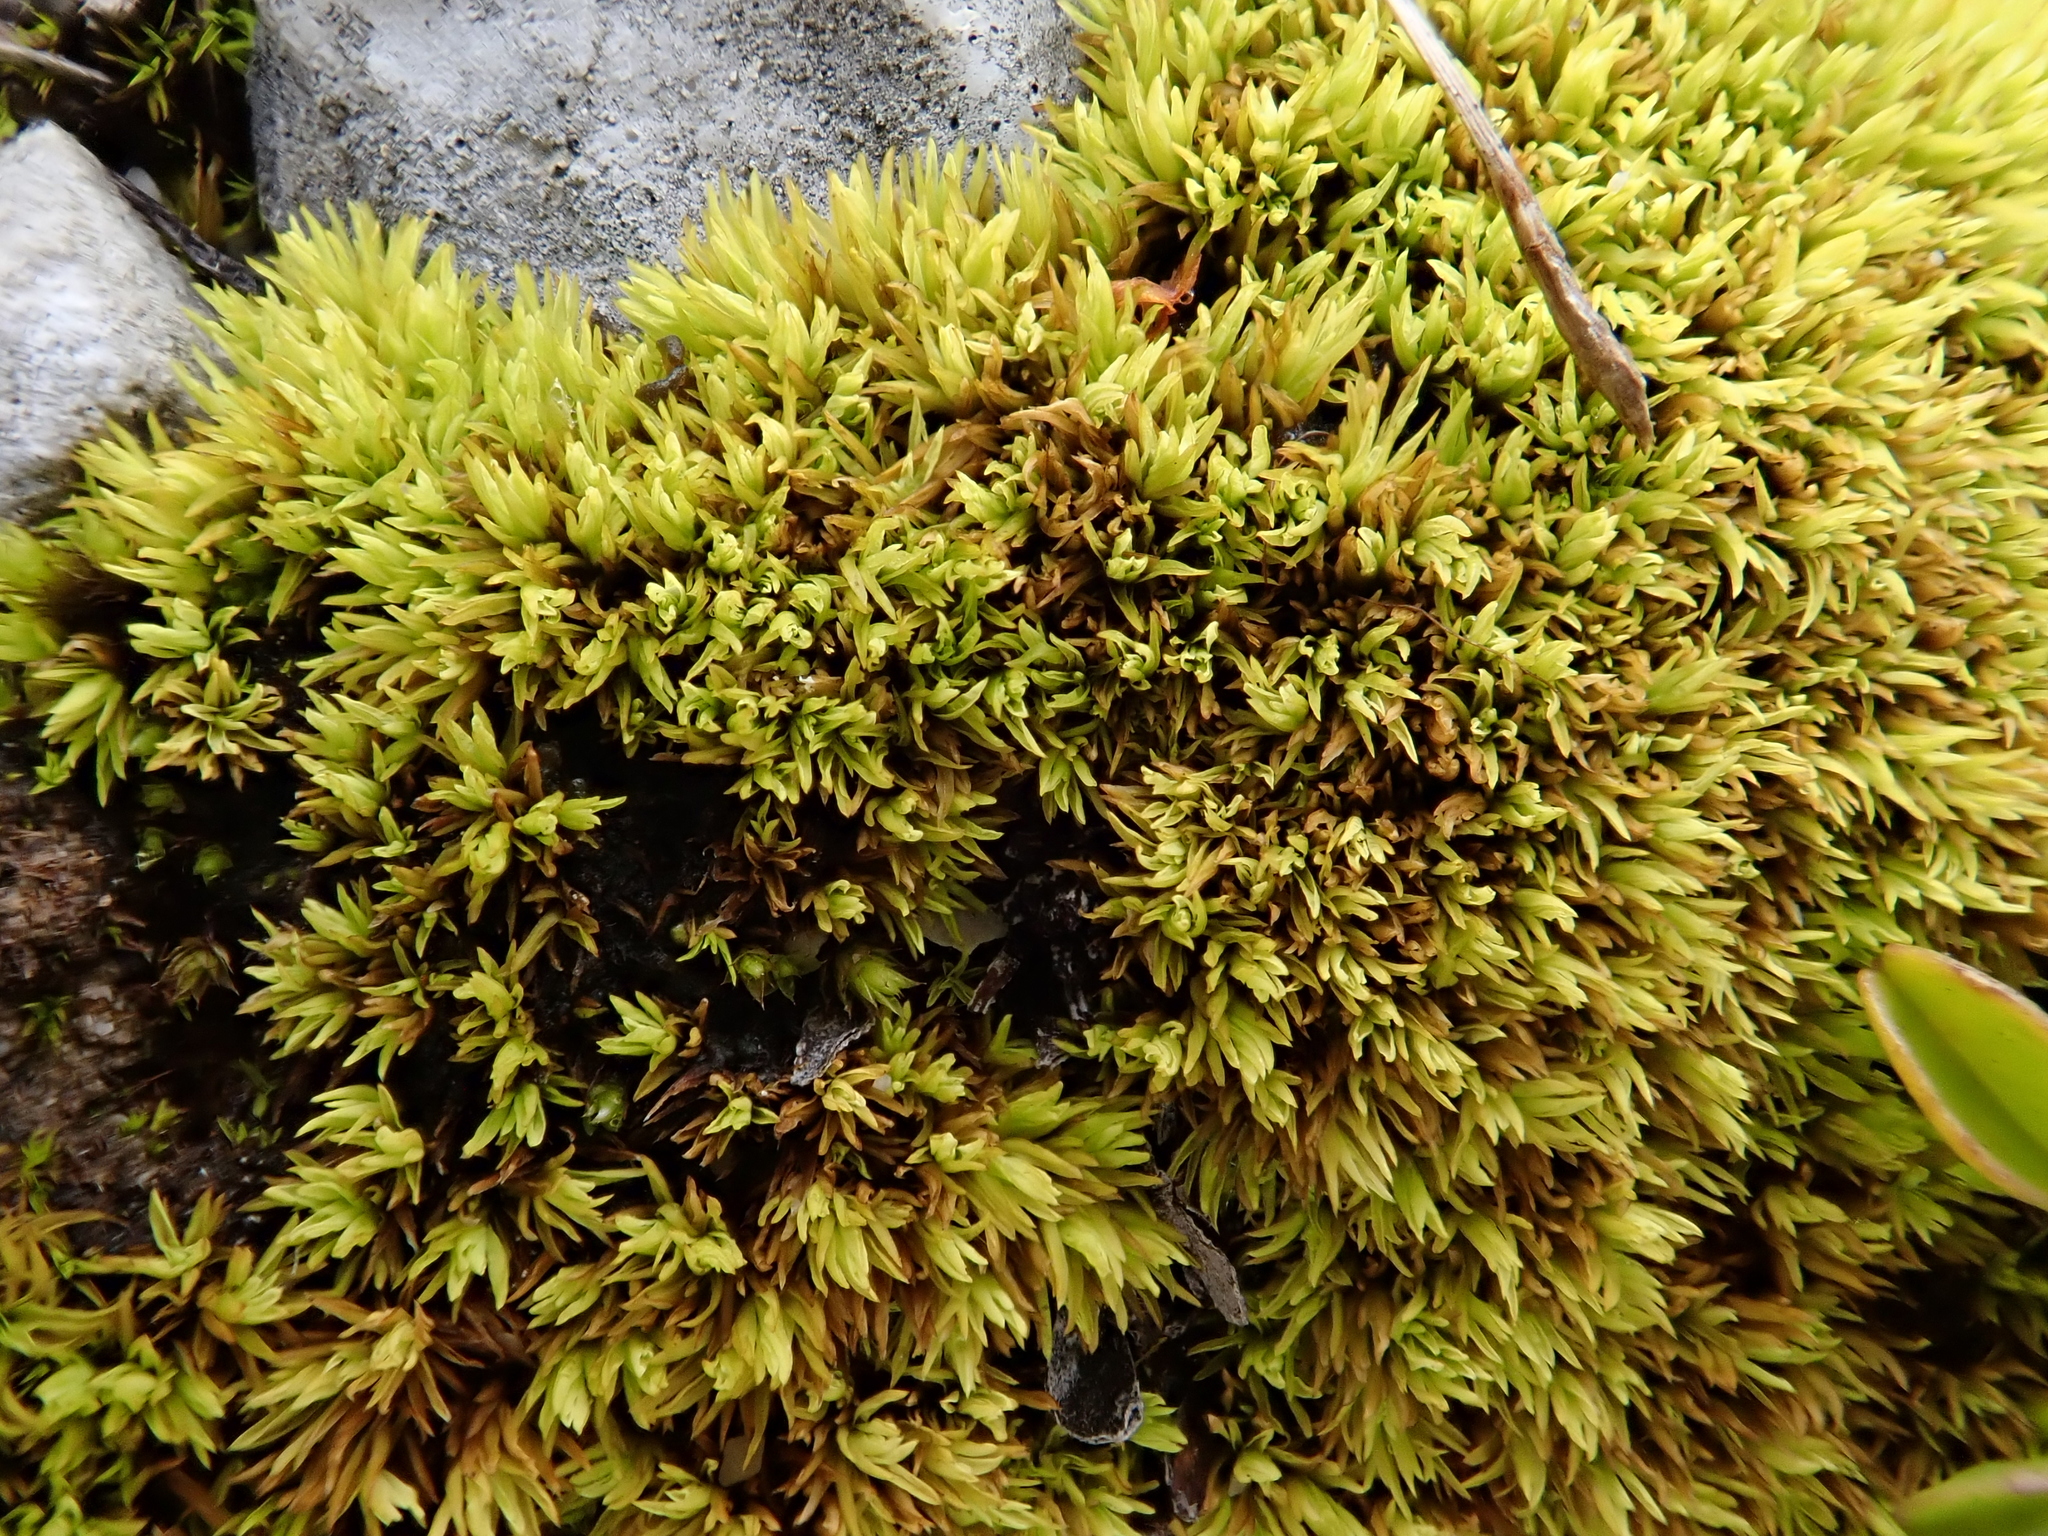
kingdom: Plantae
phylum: Bryophyta
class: Bryopsida
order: Pottiales
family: Pottiaceae
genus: Tortella
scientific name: Tortella inclinata
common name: Inclined twisted moss
